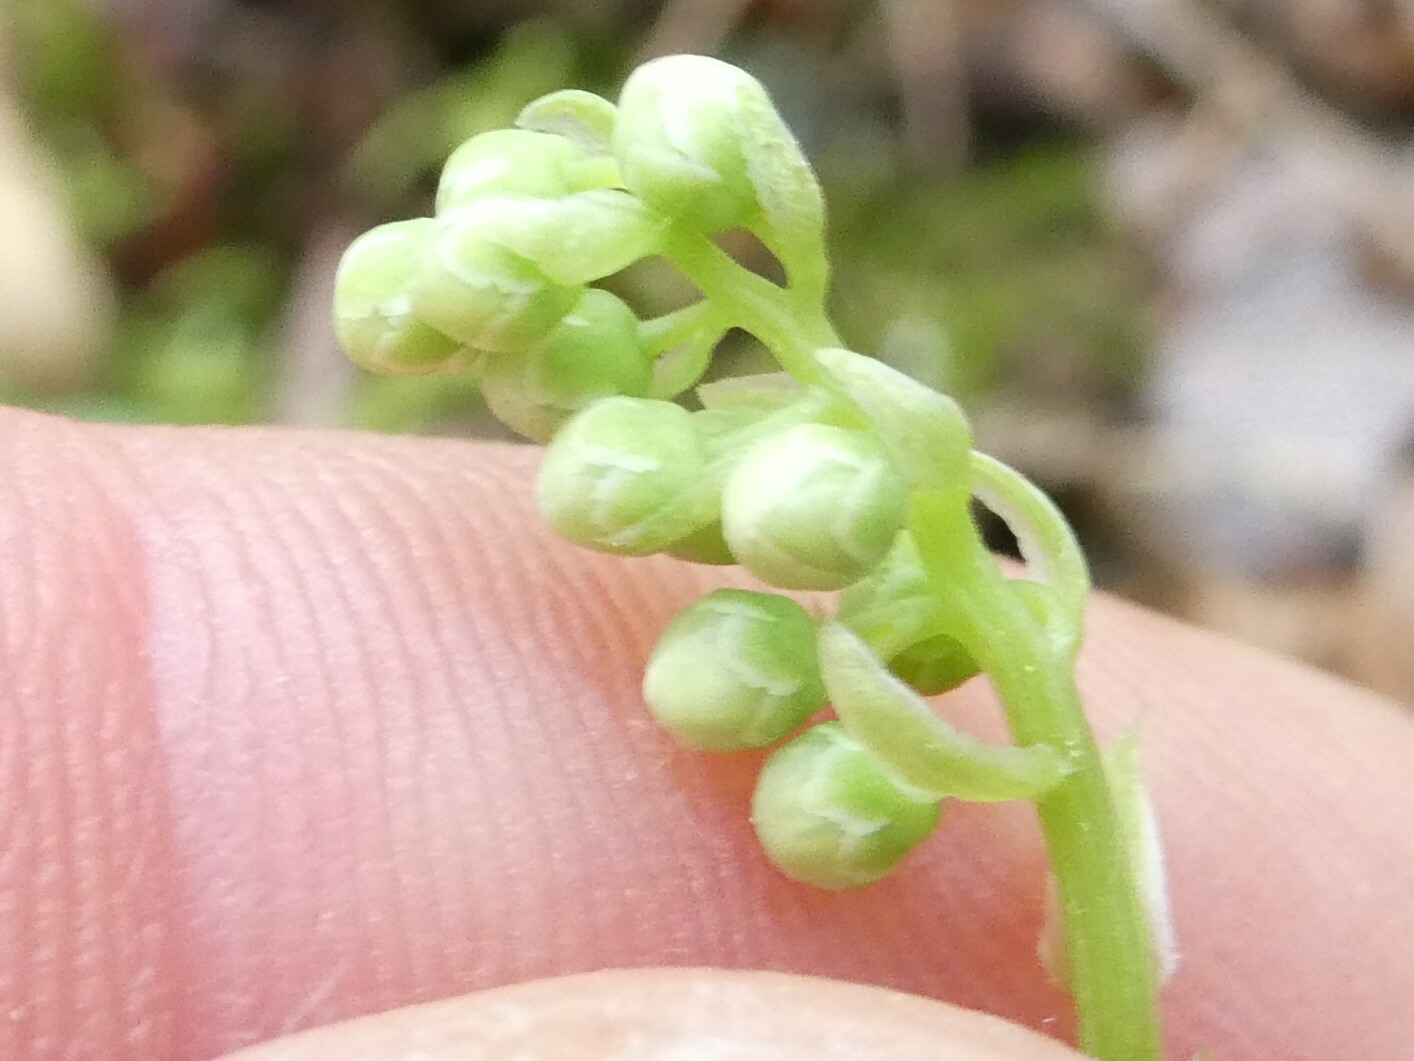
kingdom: Plantae
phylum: Tracheophyta
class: Magnoliopsida
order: Ericales
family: Ericaceae
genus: Orthilia
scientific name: Orthilia secunda
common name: One-sided orthilia
